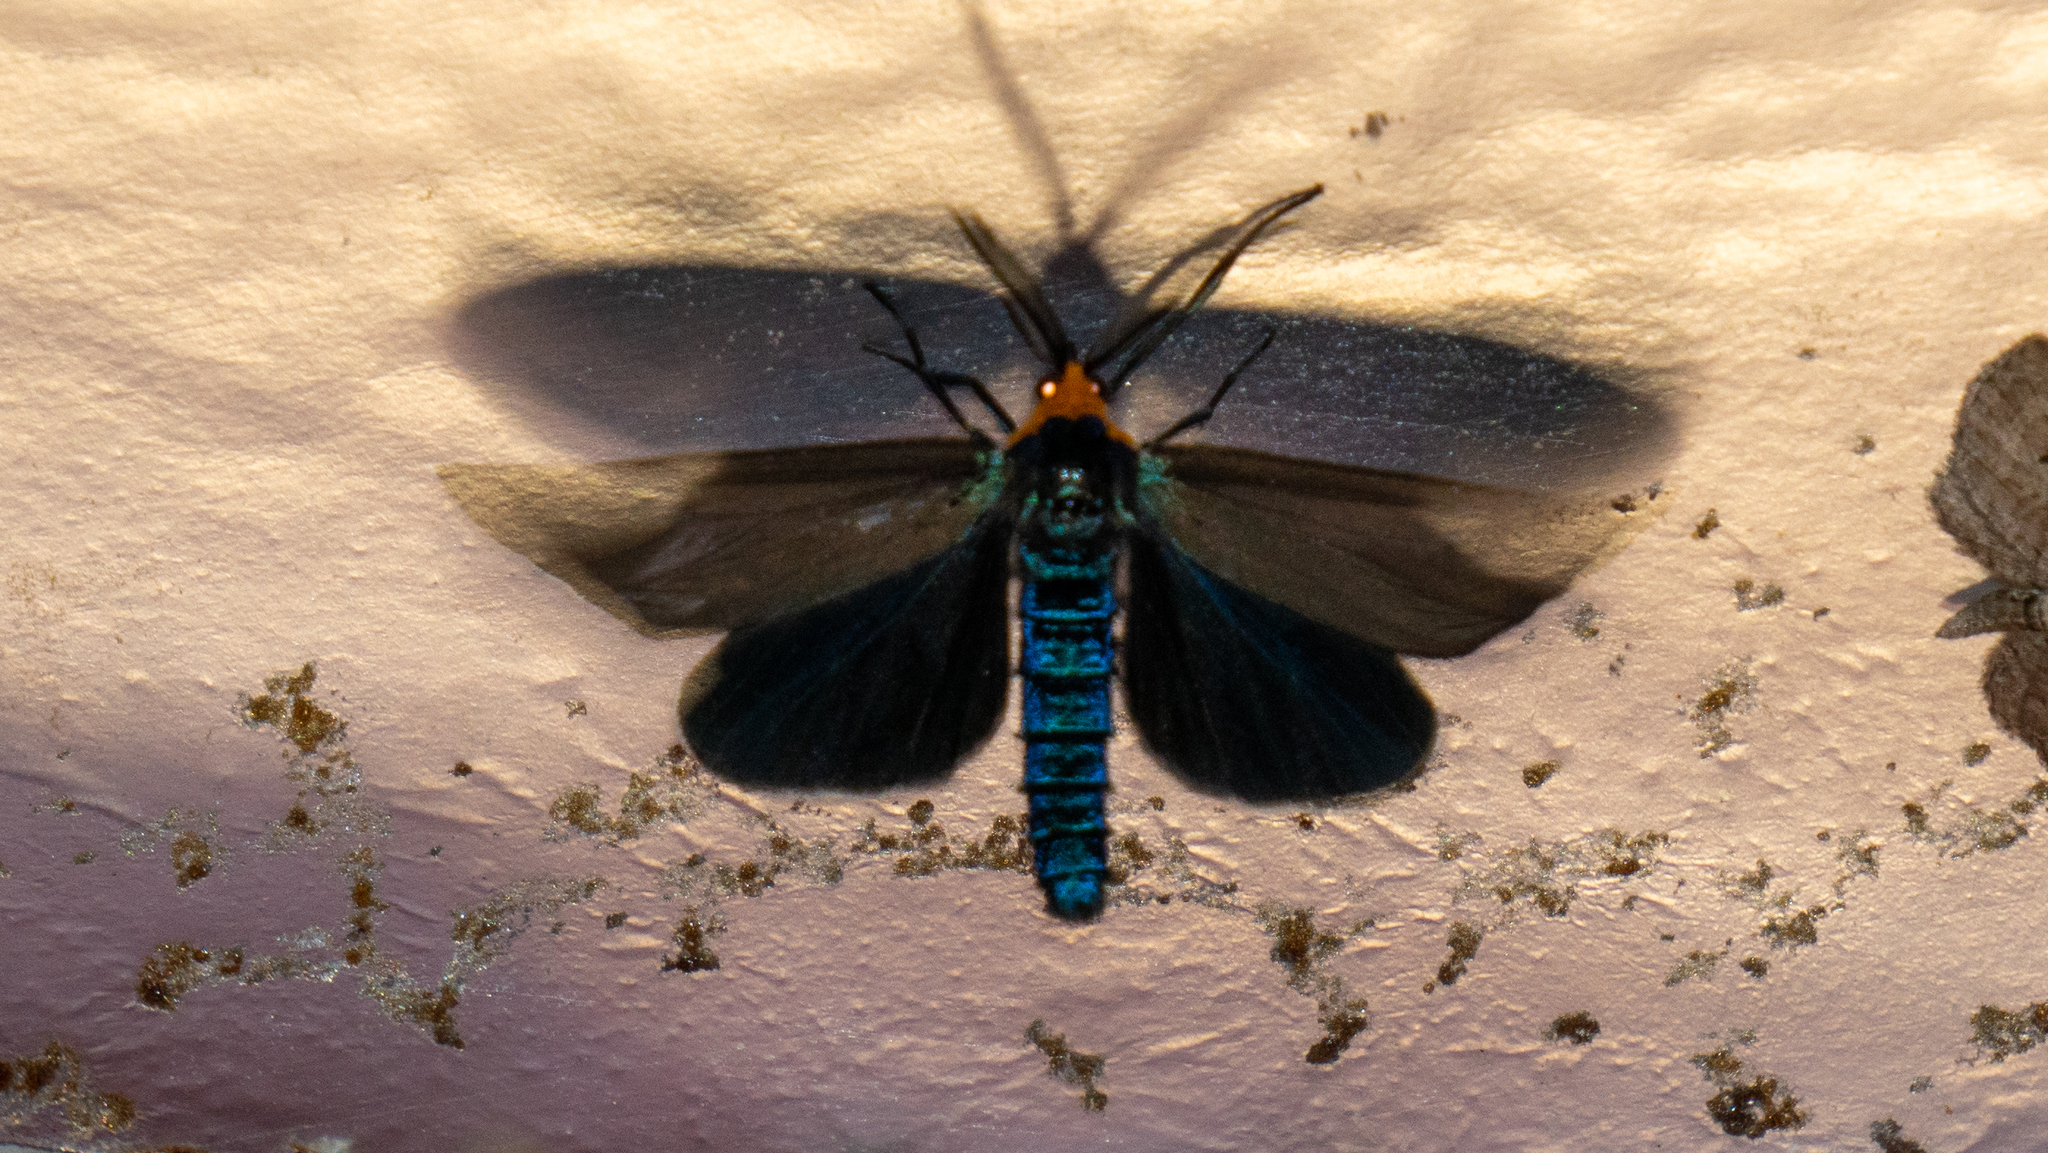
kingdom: Animalia
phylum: Arthropoda
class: Insecta
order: Lepidoptera
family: Erebidae
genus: Ctenucha
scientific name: Ctenucha virginica
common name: Virginia ctenucha moth
